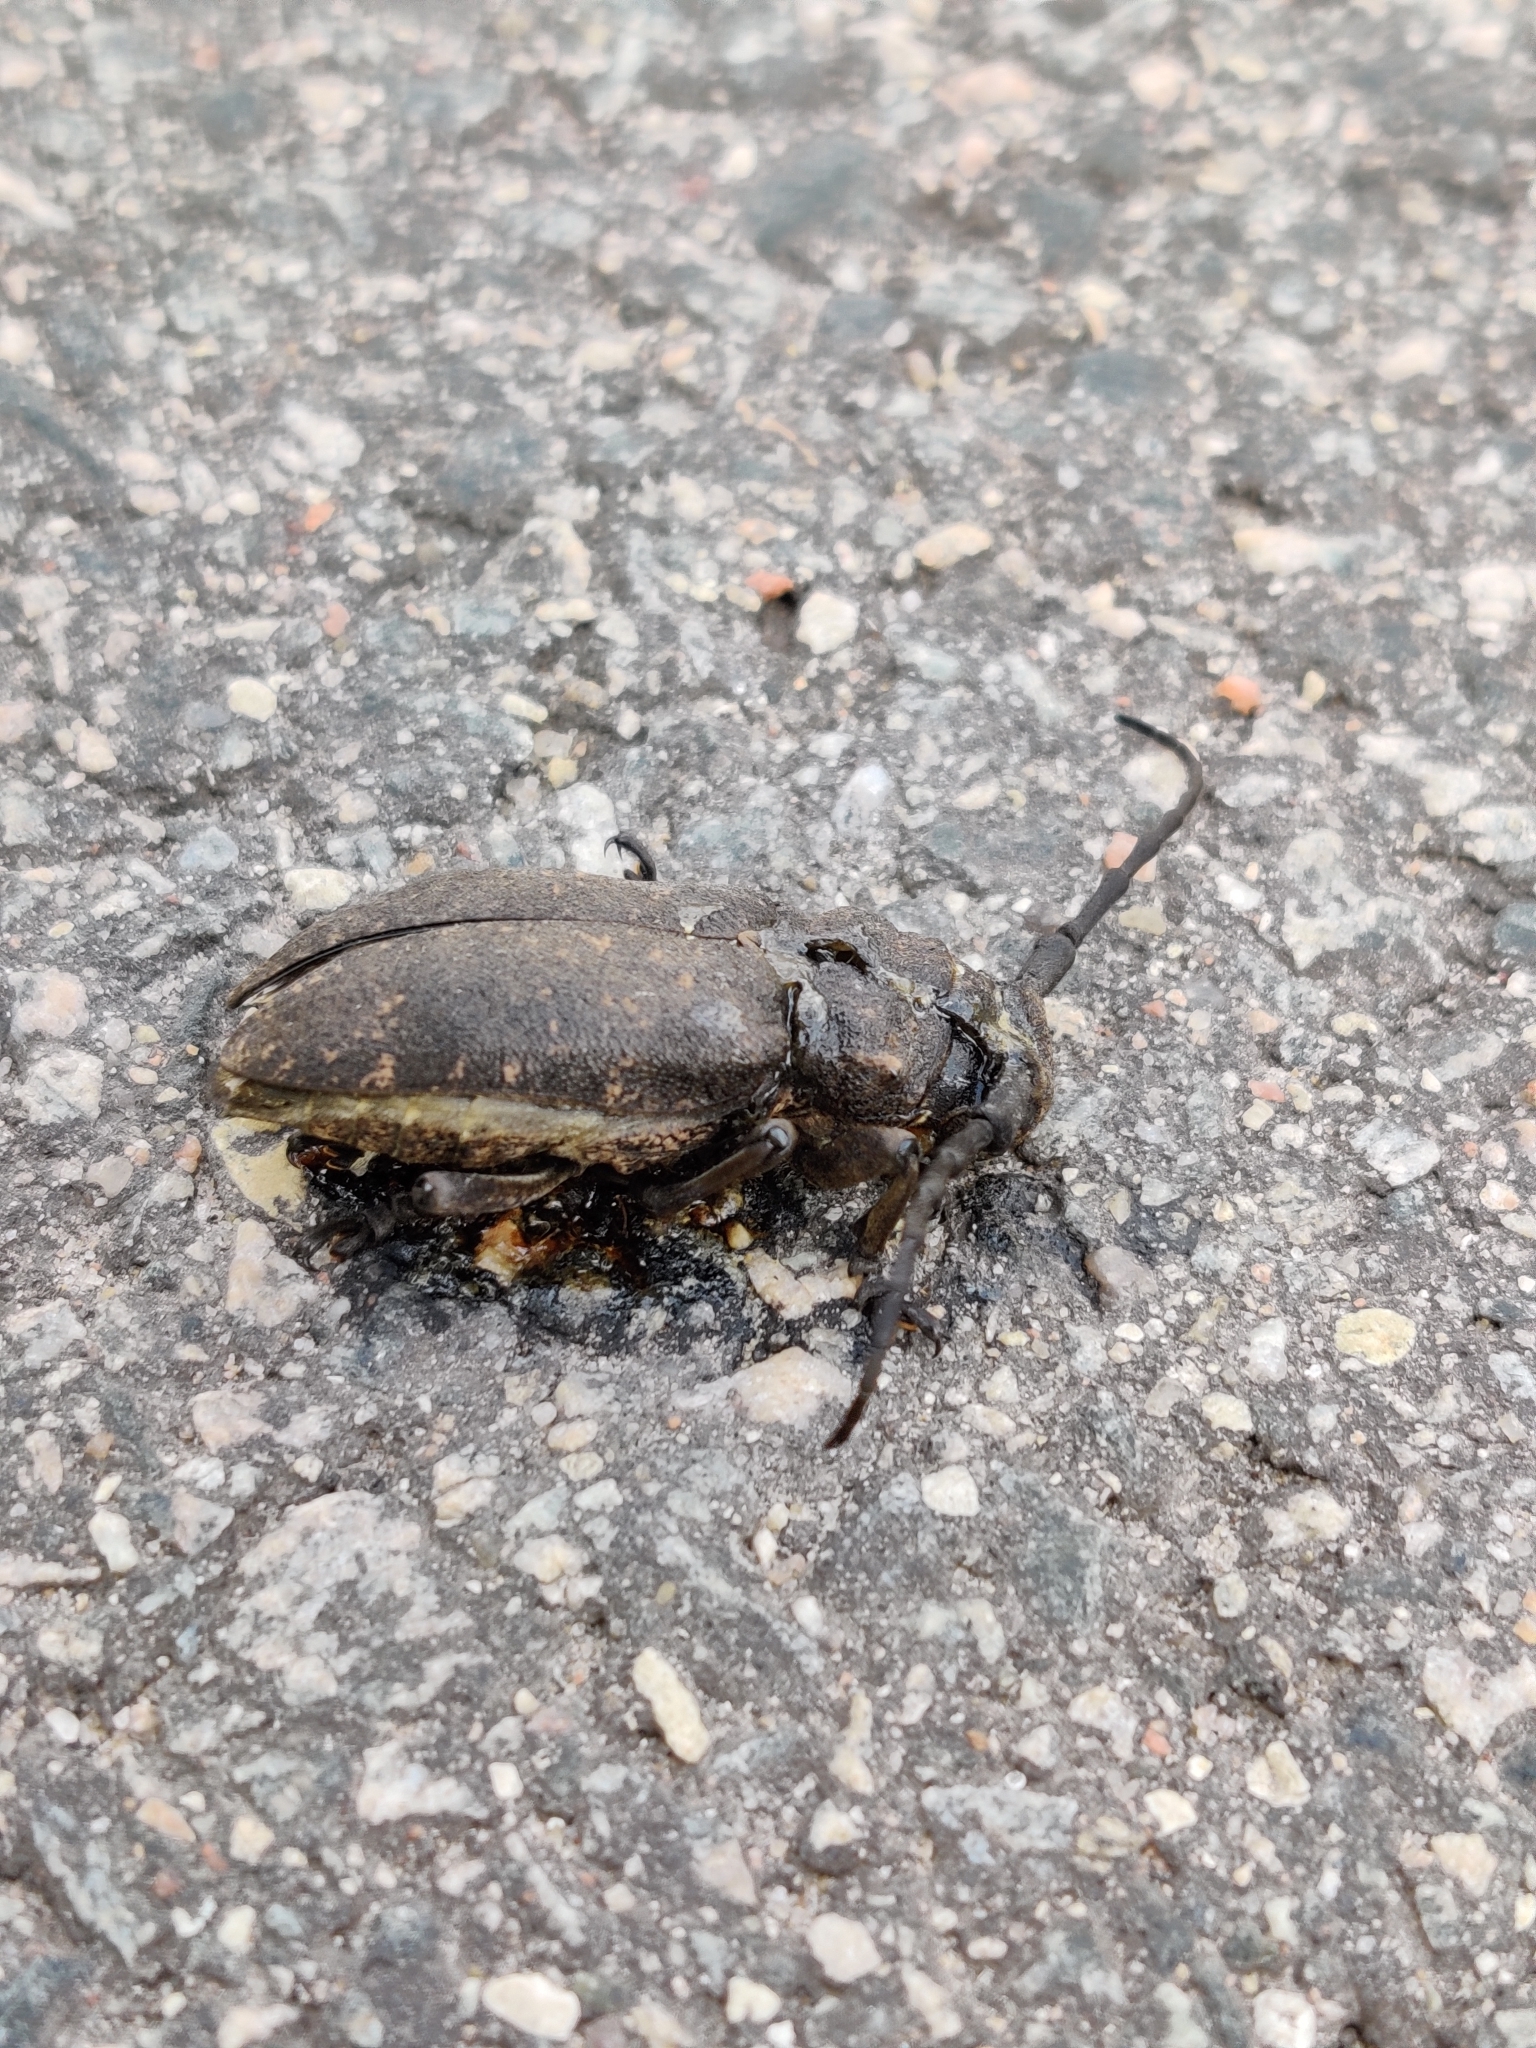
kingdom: Animalia
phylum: Arthropoda
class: Insecta
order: Coleoptera
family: Cerambycidae
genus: Lamia
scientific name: Lamia textor
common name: Weaver beetle
